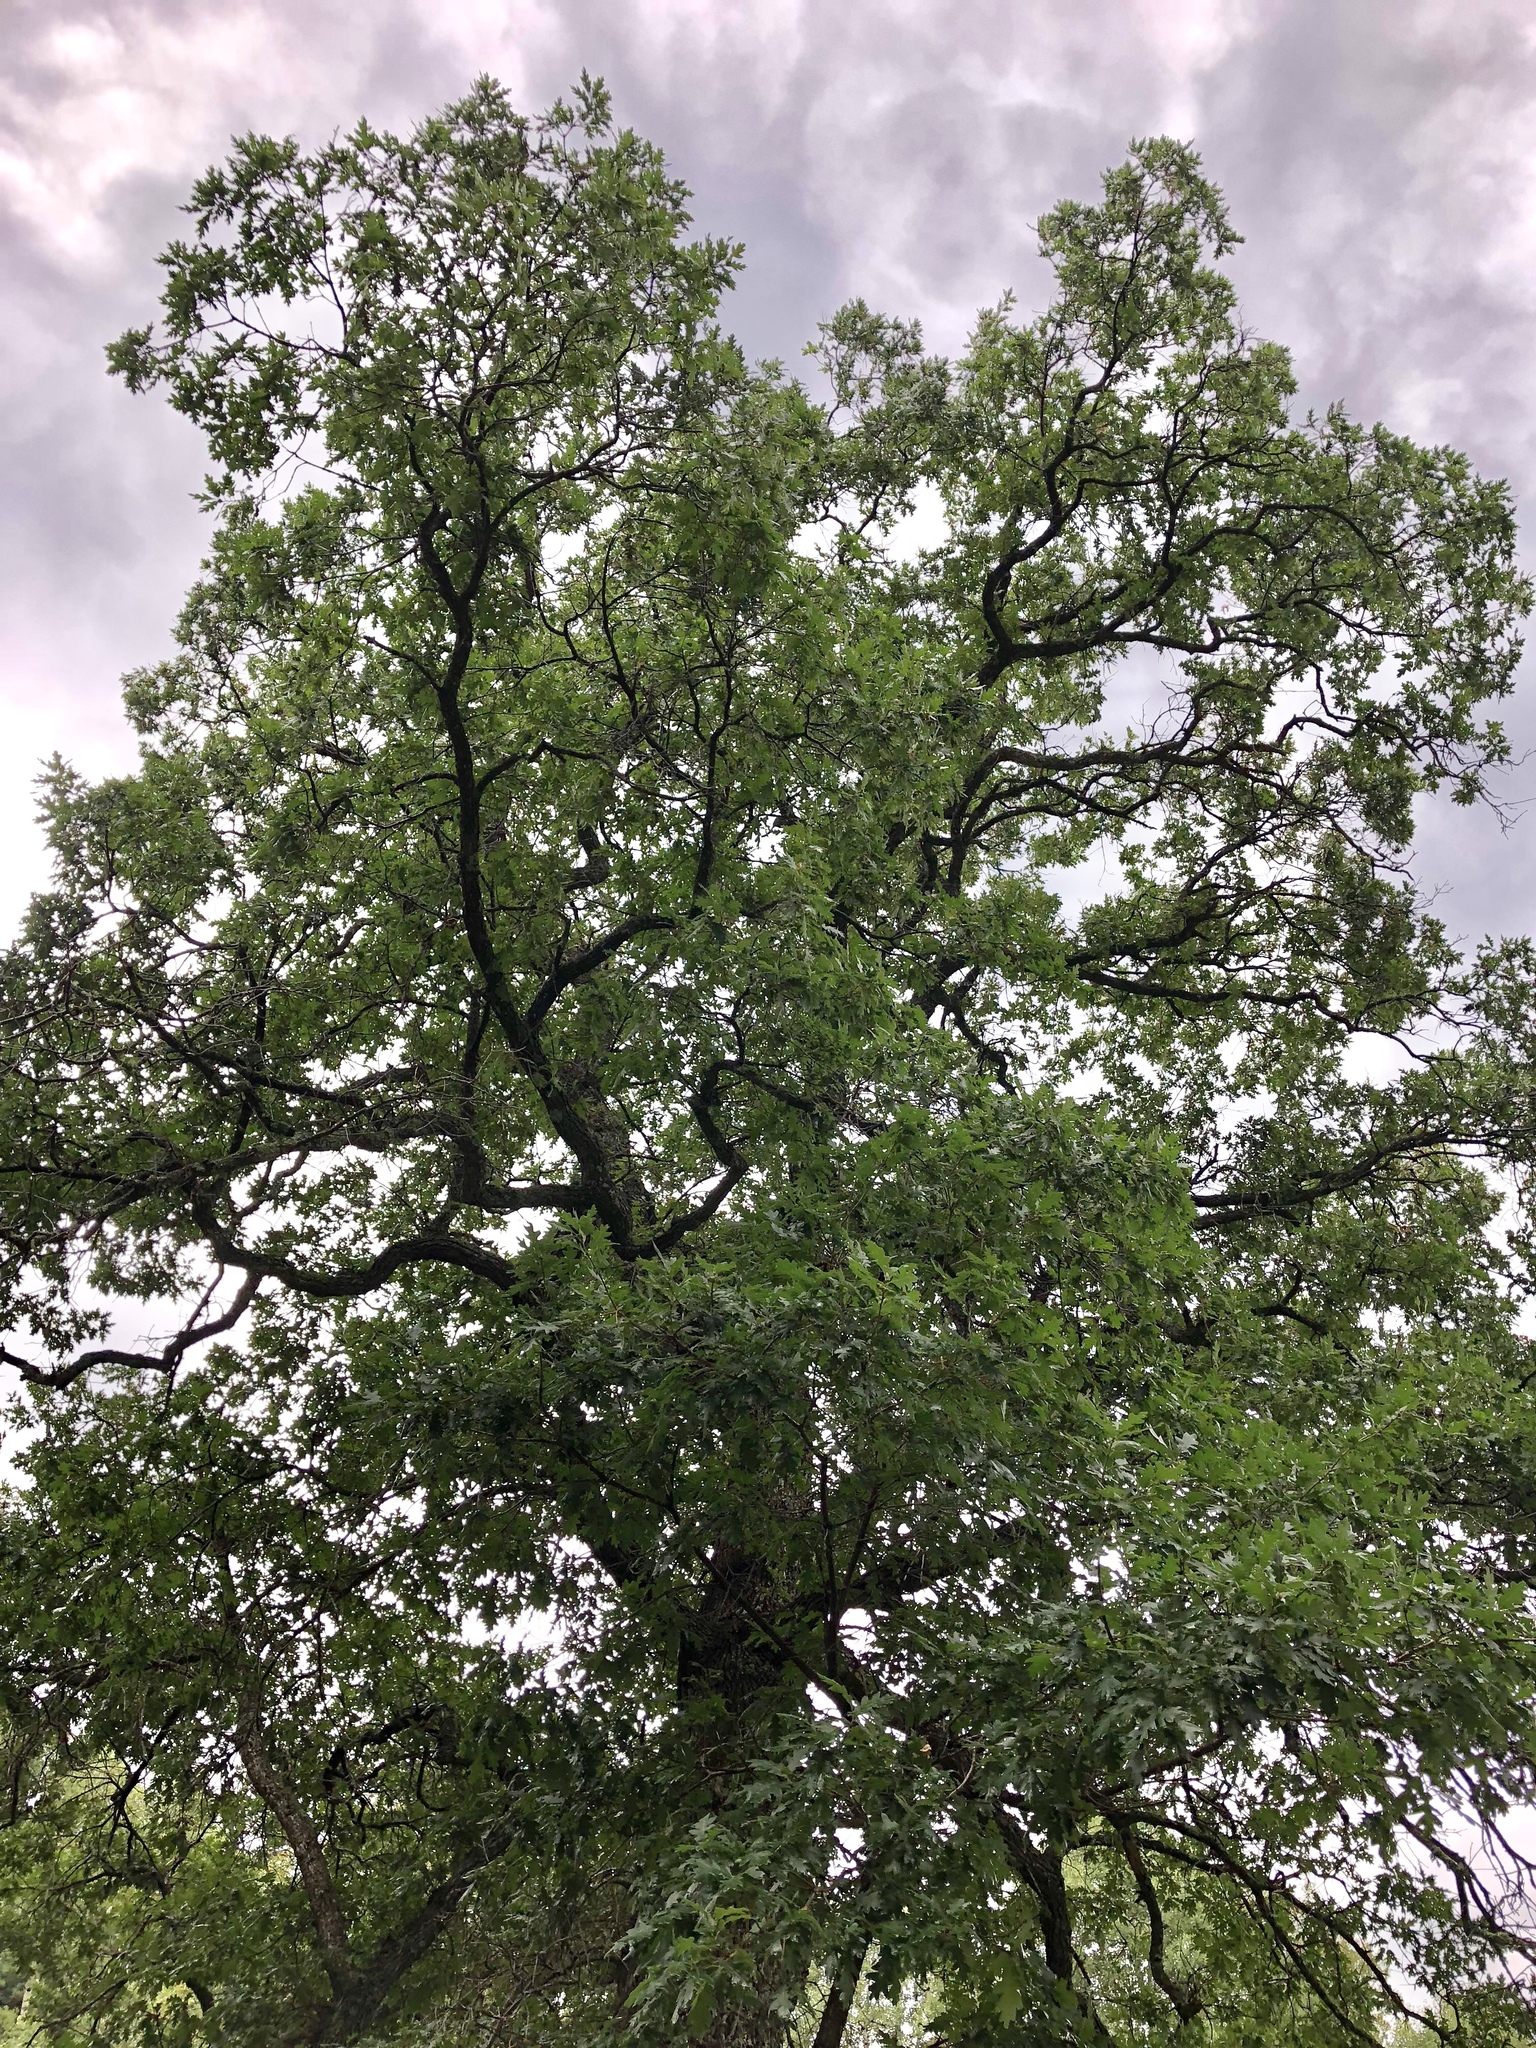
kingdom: Plantae
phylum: Tracheophyta
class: Magnoliopsida
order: Fagales
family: Fagaceae
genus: Quercus
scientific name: Quercus gambelii
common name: Gambel oak
